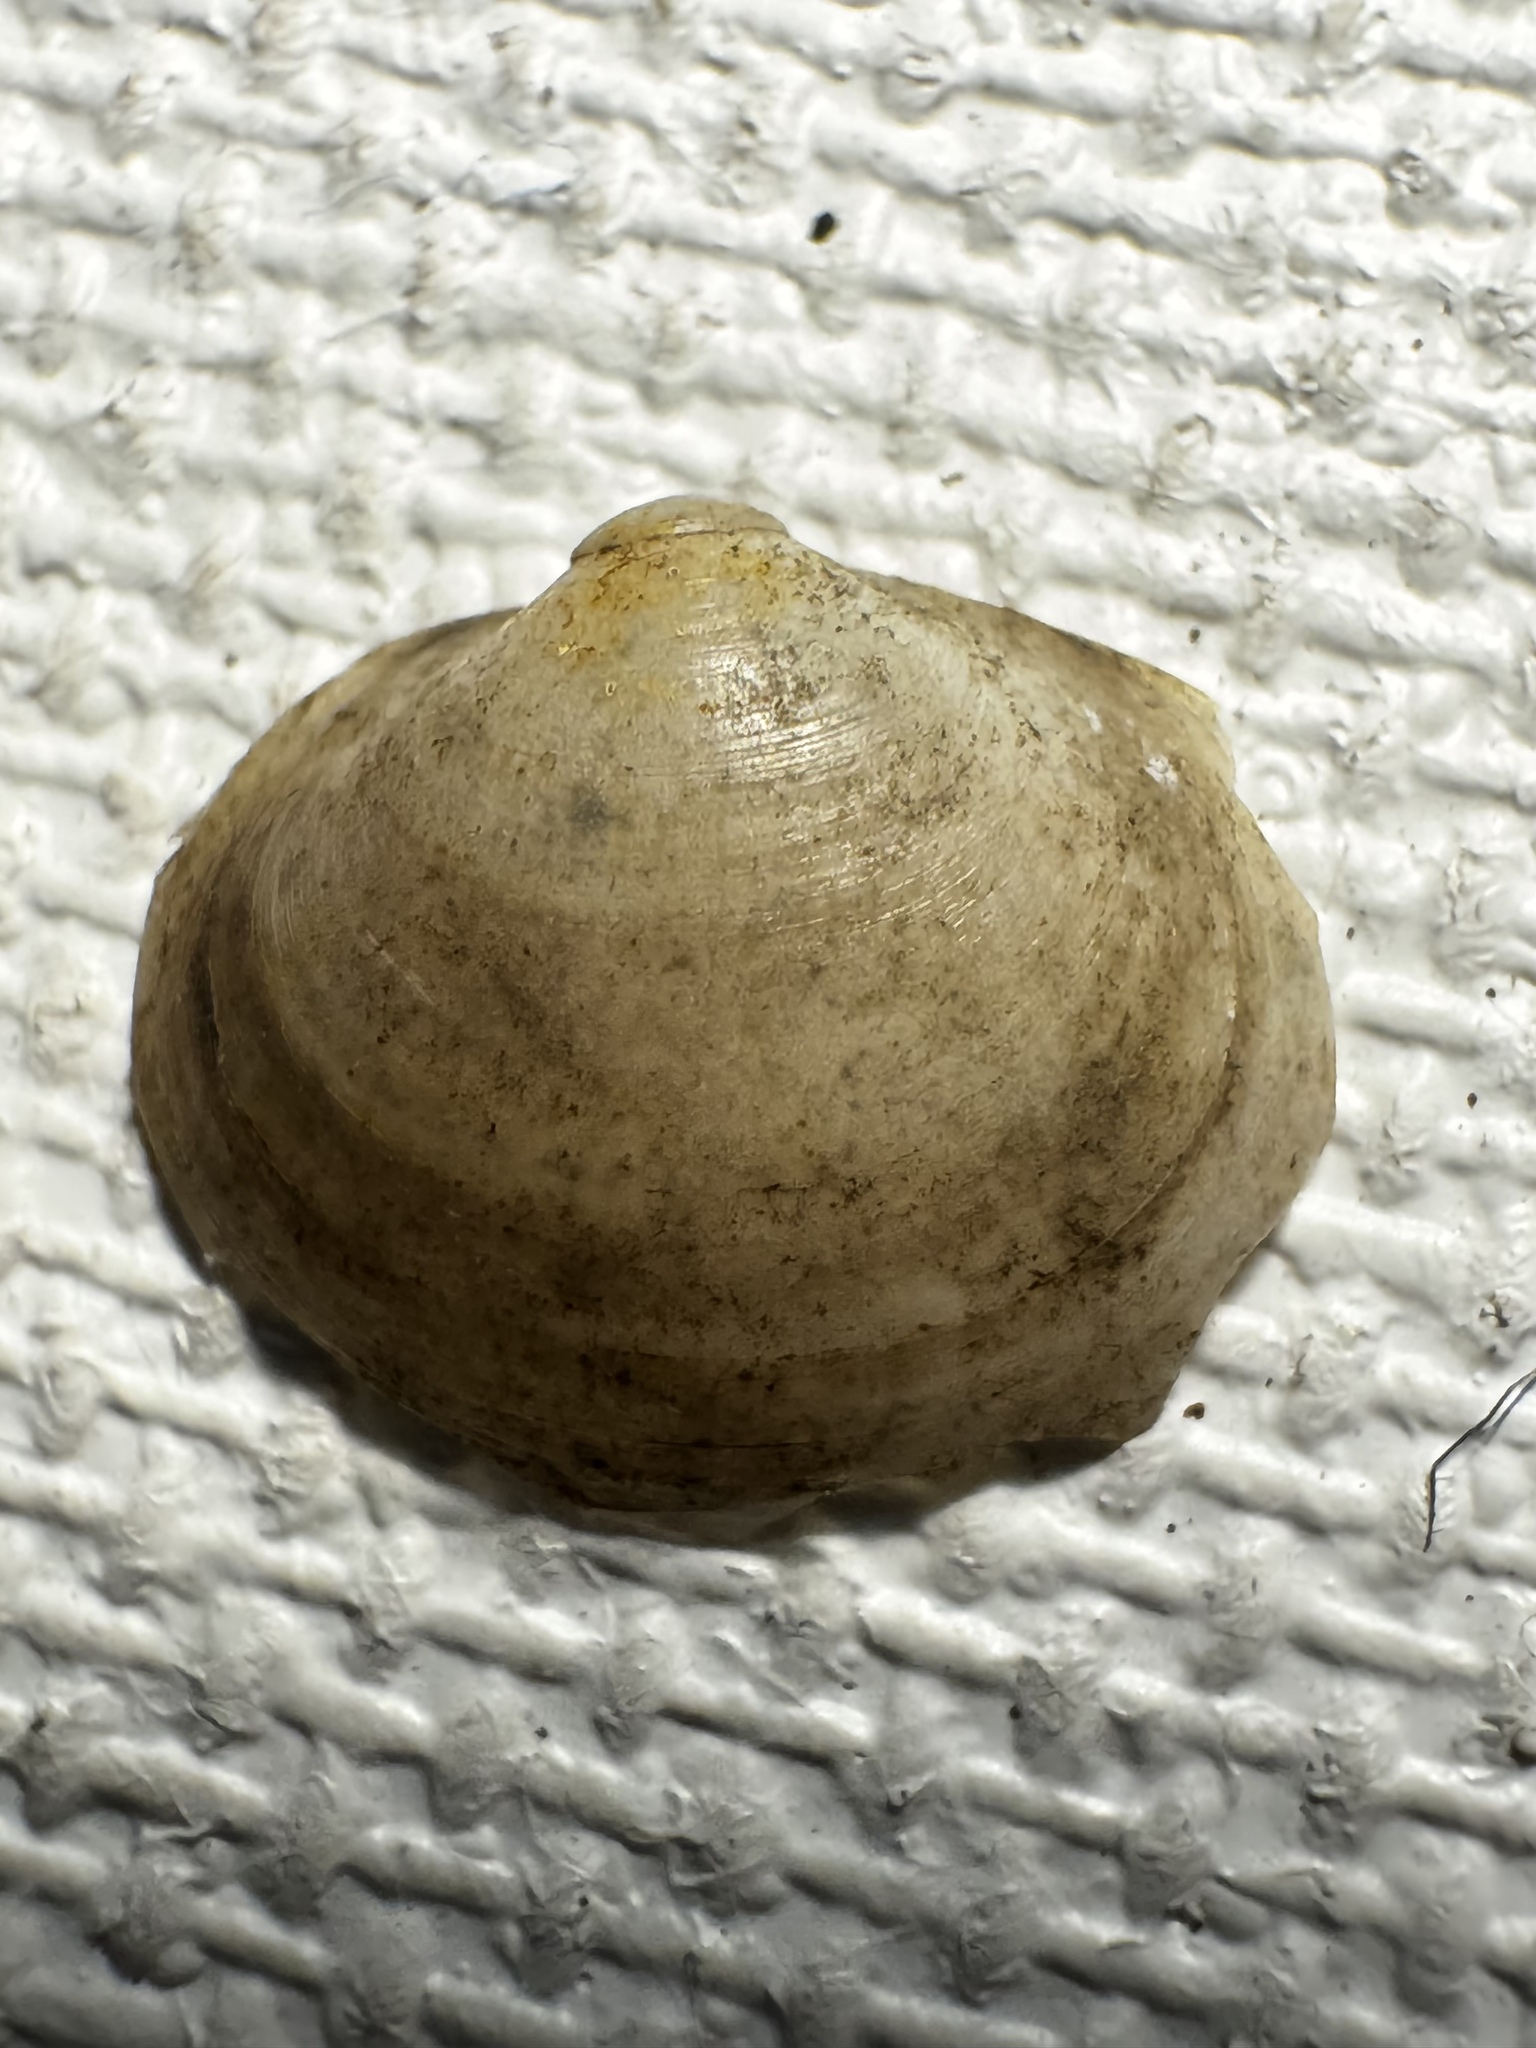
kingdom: Animalia
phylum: Mollusca
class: Bivalvia
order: Sphaeriida
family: Sphaeriidae
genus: Musculium
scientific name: Musculium lacustre
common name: Lake fingernailclam
